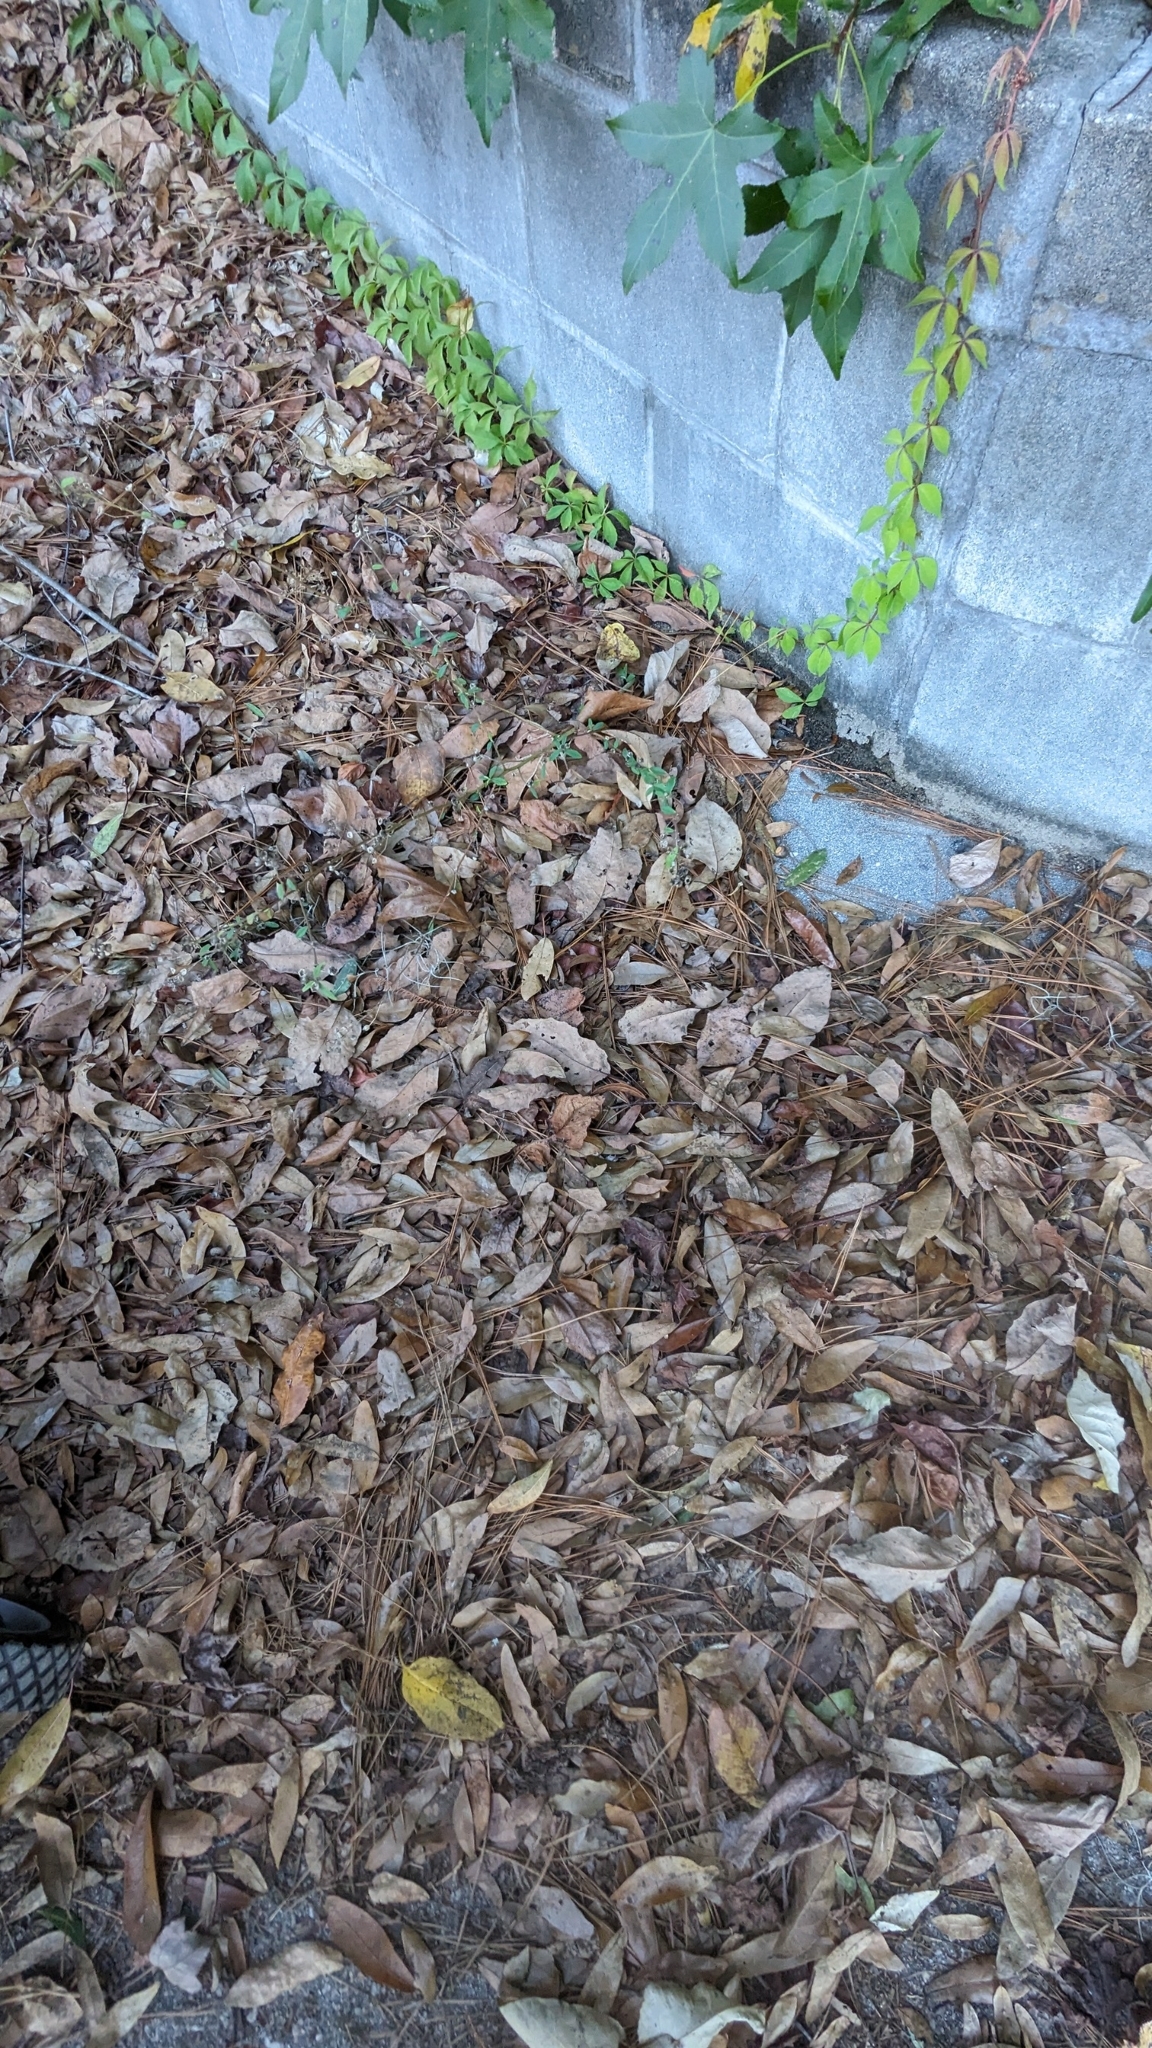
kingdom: Plantae
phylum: Tracheophyta
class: Magnoliopsida
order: Ericales
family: Ebenaceae
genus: Diospyros
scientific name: Diospyros virginiana
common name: Persimmon
